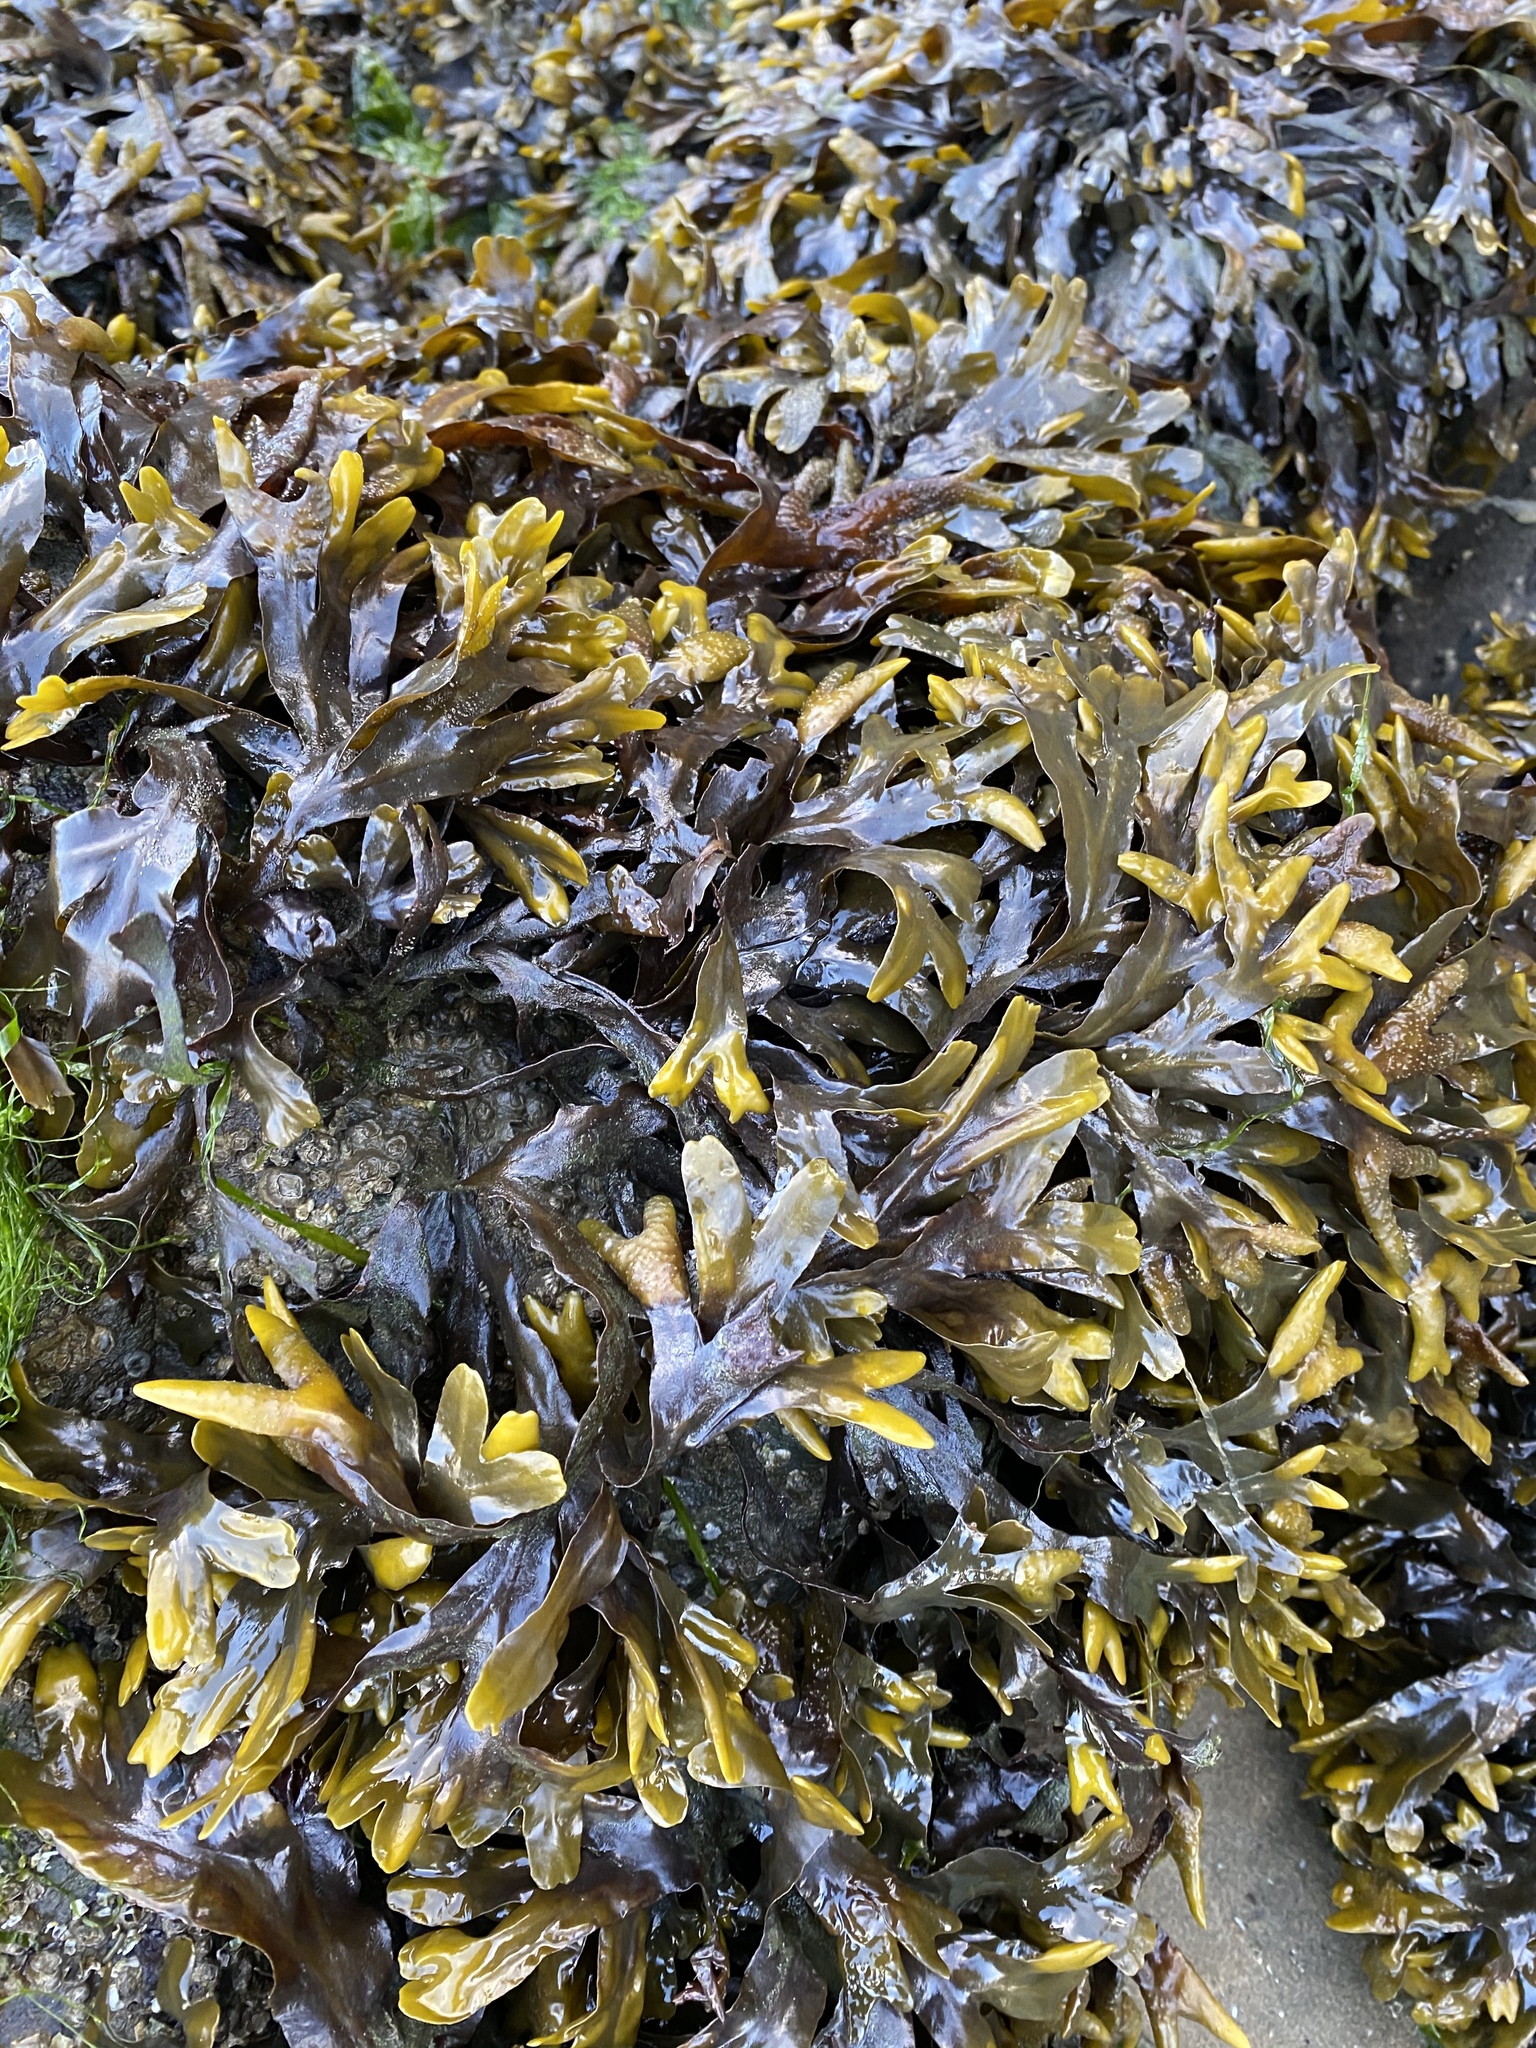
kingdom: Chromista
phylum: Ochrophyta
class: Phaeophyceae
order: Fucales
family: Fucaceae
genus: Fucus
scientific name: Fucus distichus
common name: Rockweed
